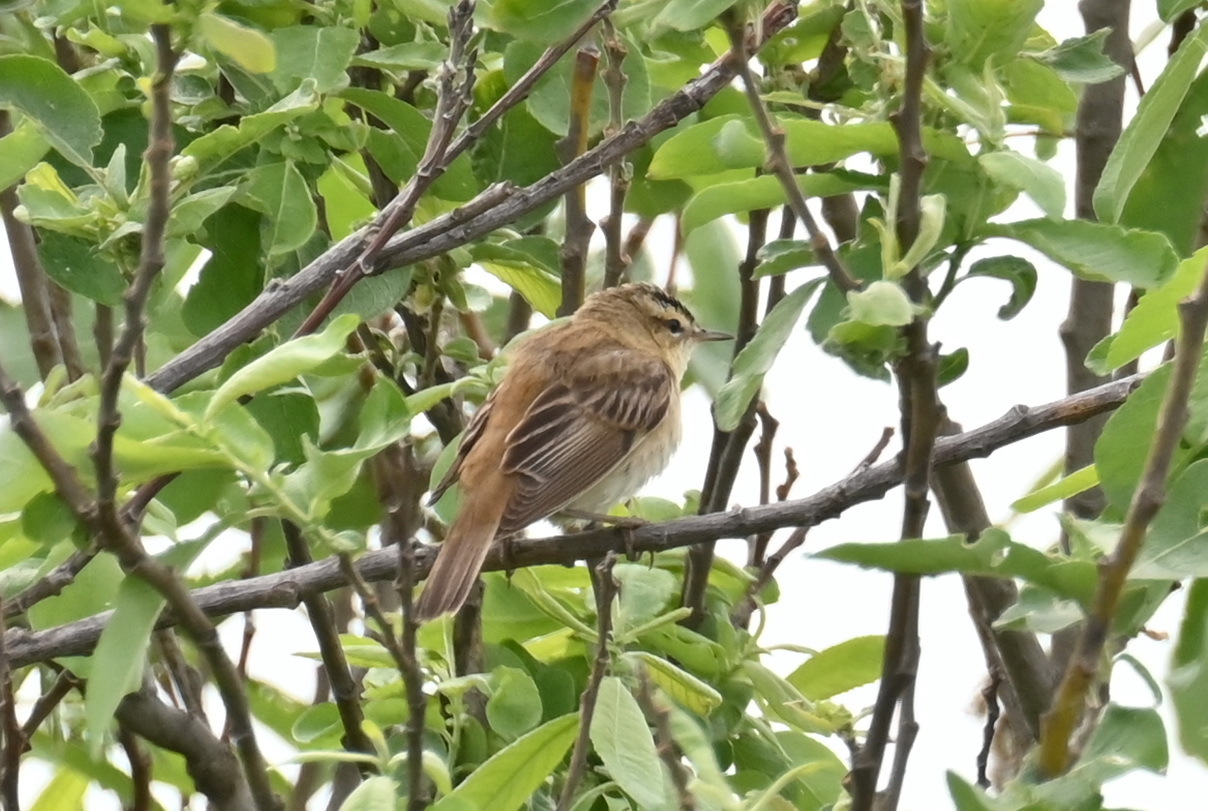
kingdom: Animalia
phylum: Chordata
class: Aves
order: Passeriformes
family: Acrocephalidae
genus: Acrocephalus
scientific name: Acrocephalus schoenobaenus
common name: Sedge warbler
